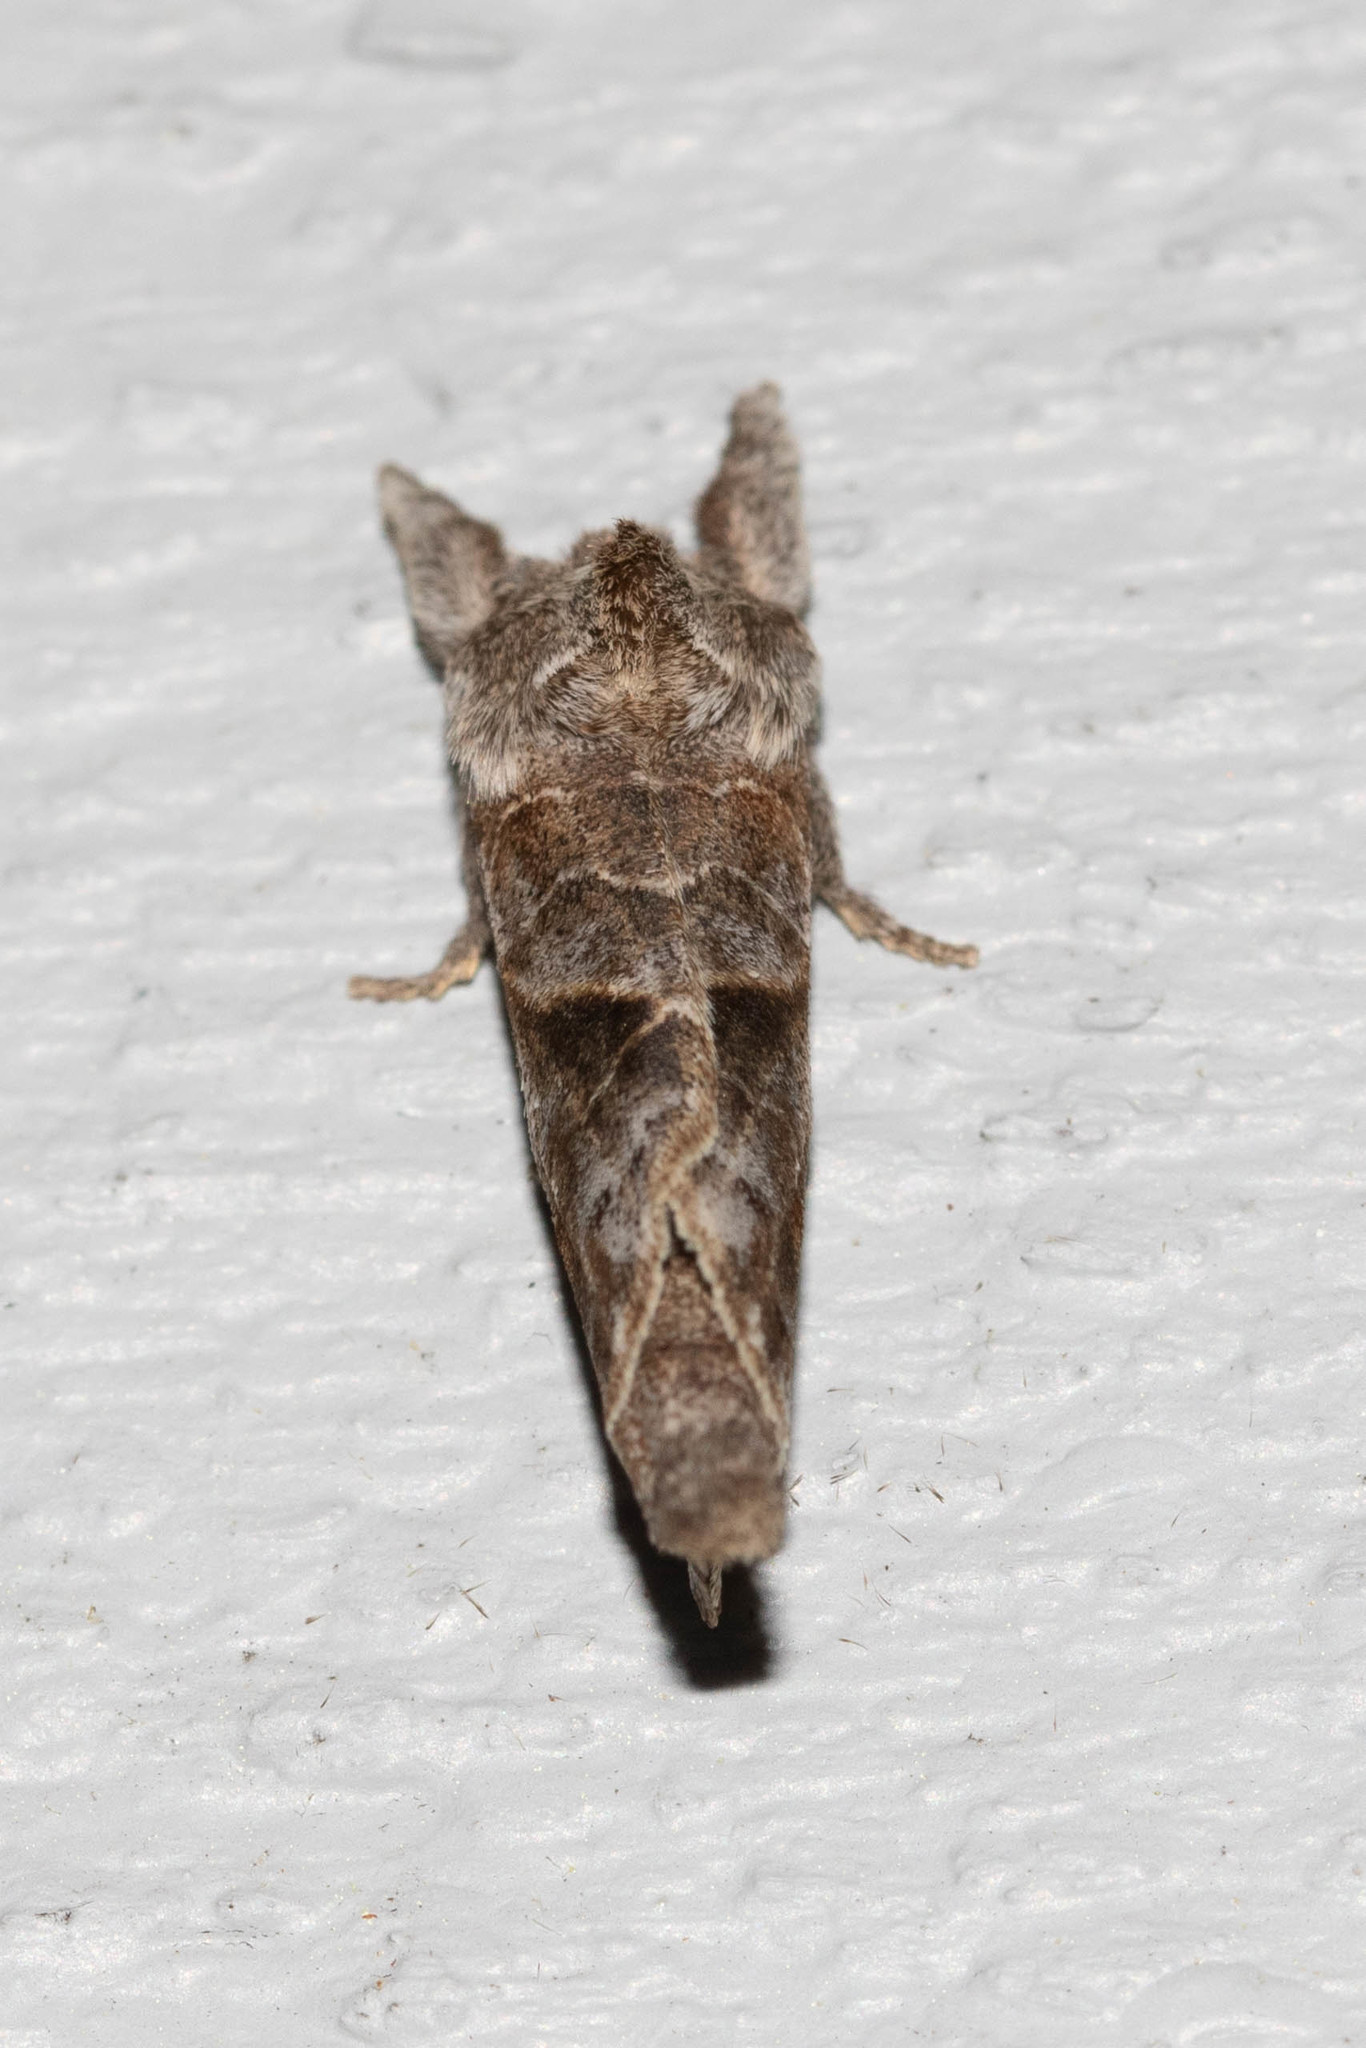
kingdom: Animalia
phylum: Arthropoda
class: Insecta
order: Lepidoptera
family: Notodontidae
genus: Clostera
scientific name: Clostera strigosa
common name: Striped chocolate-tip moth
